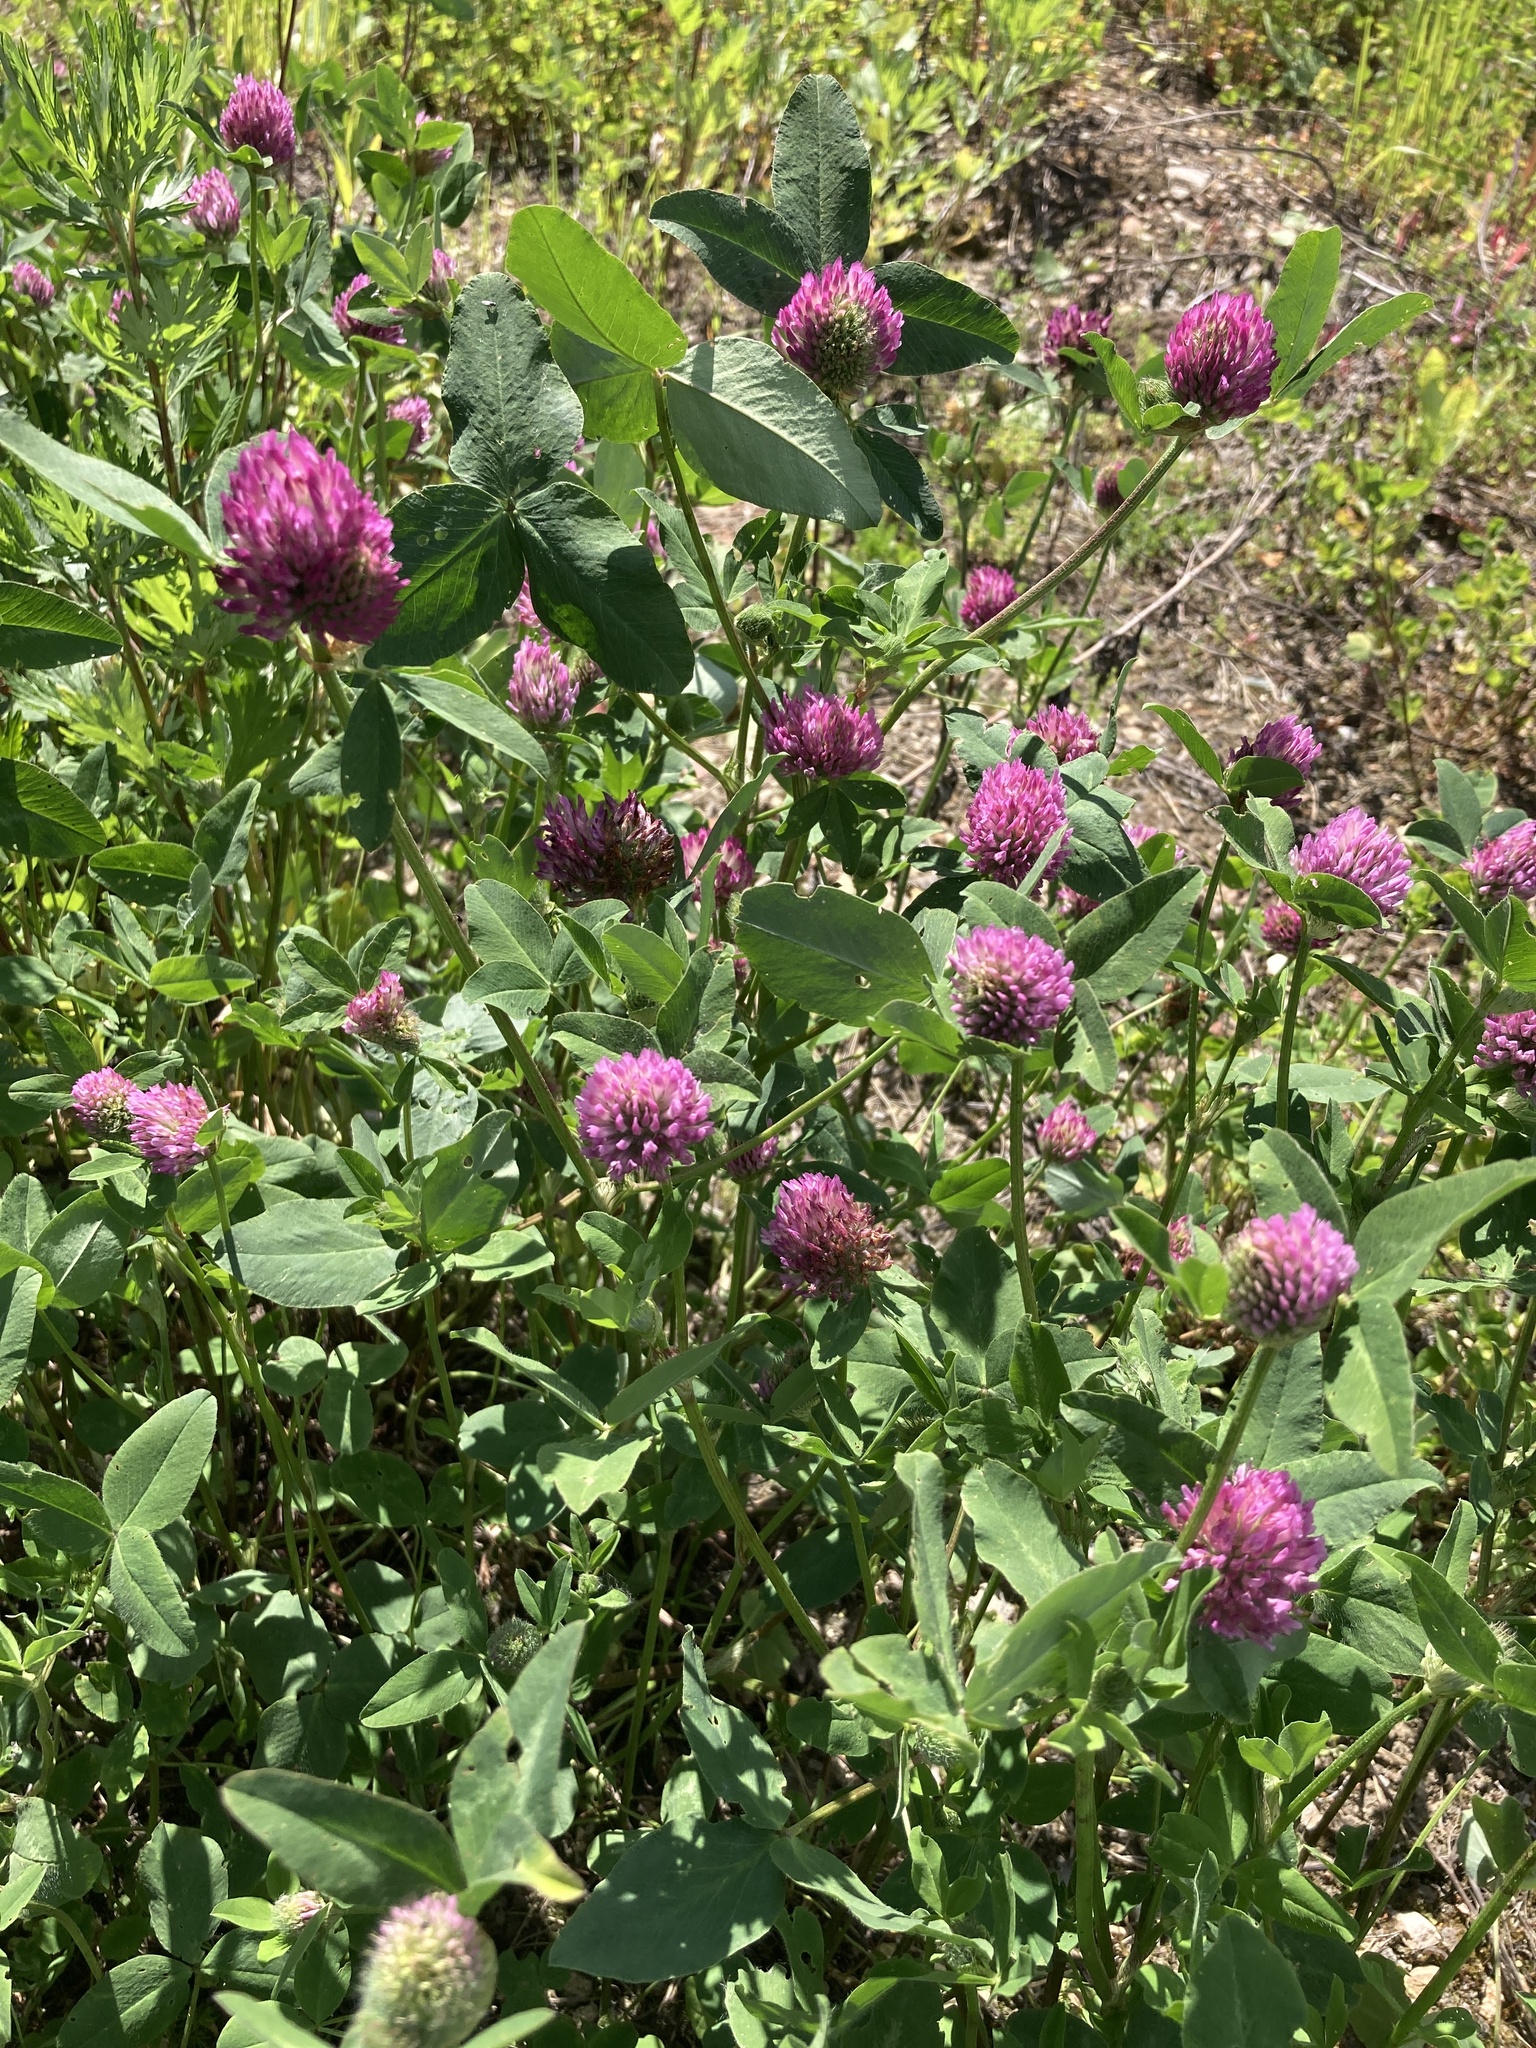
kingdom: Plantae
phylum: Tracheophyta
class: Magnoliopsida
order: Fabales
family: Fabaceae
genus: Trifolium
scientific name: Trifolium pratense
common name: Red clover
